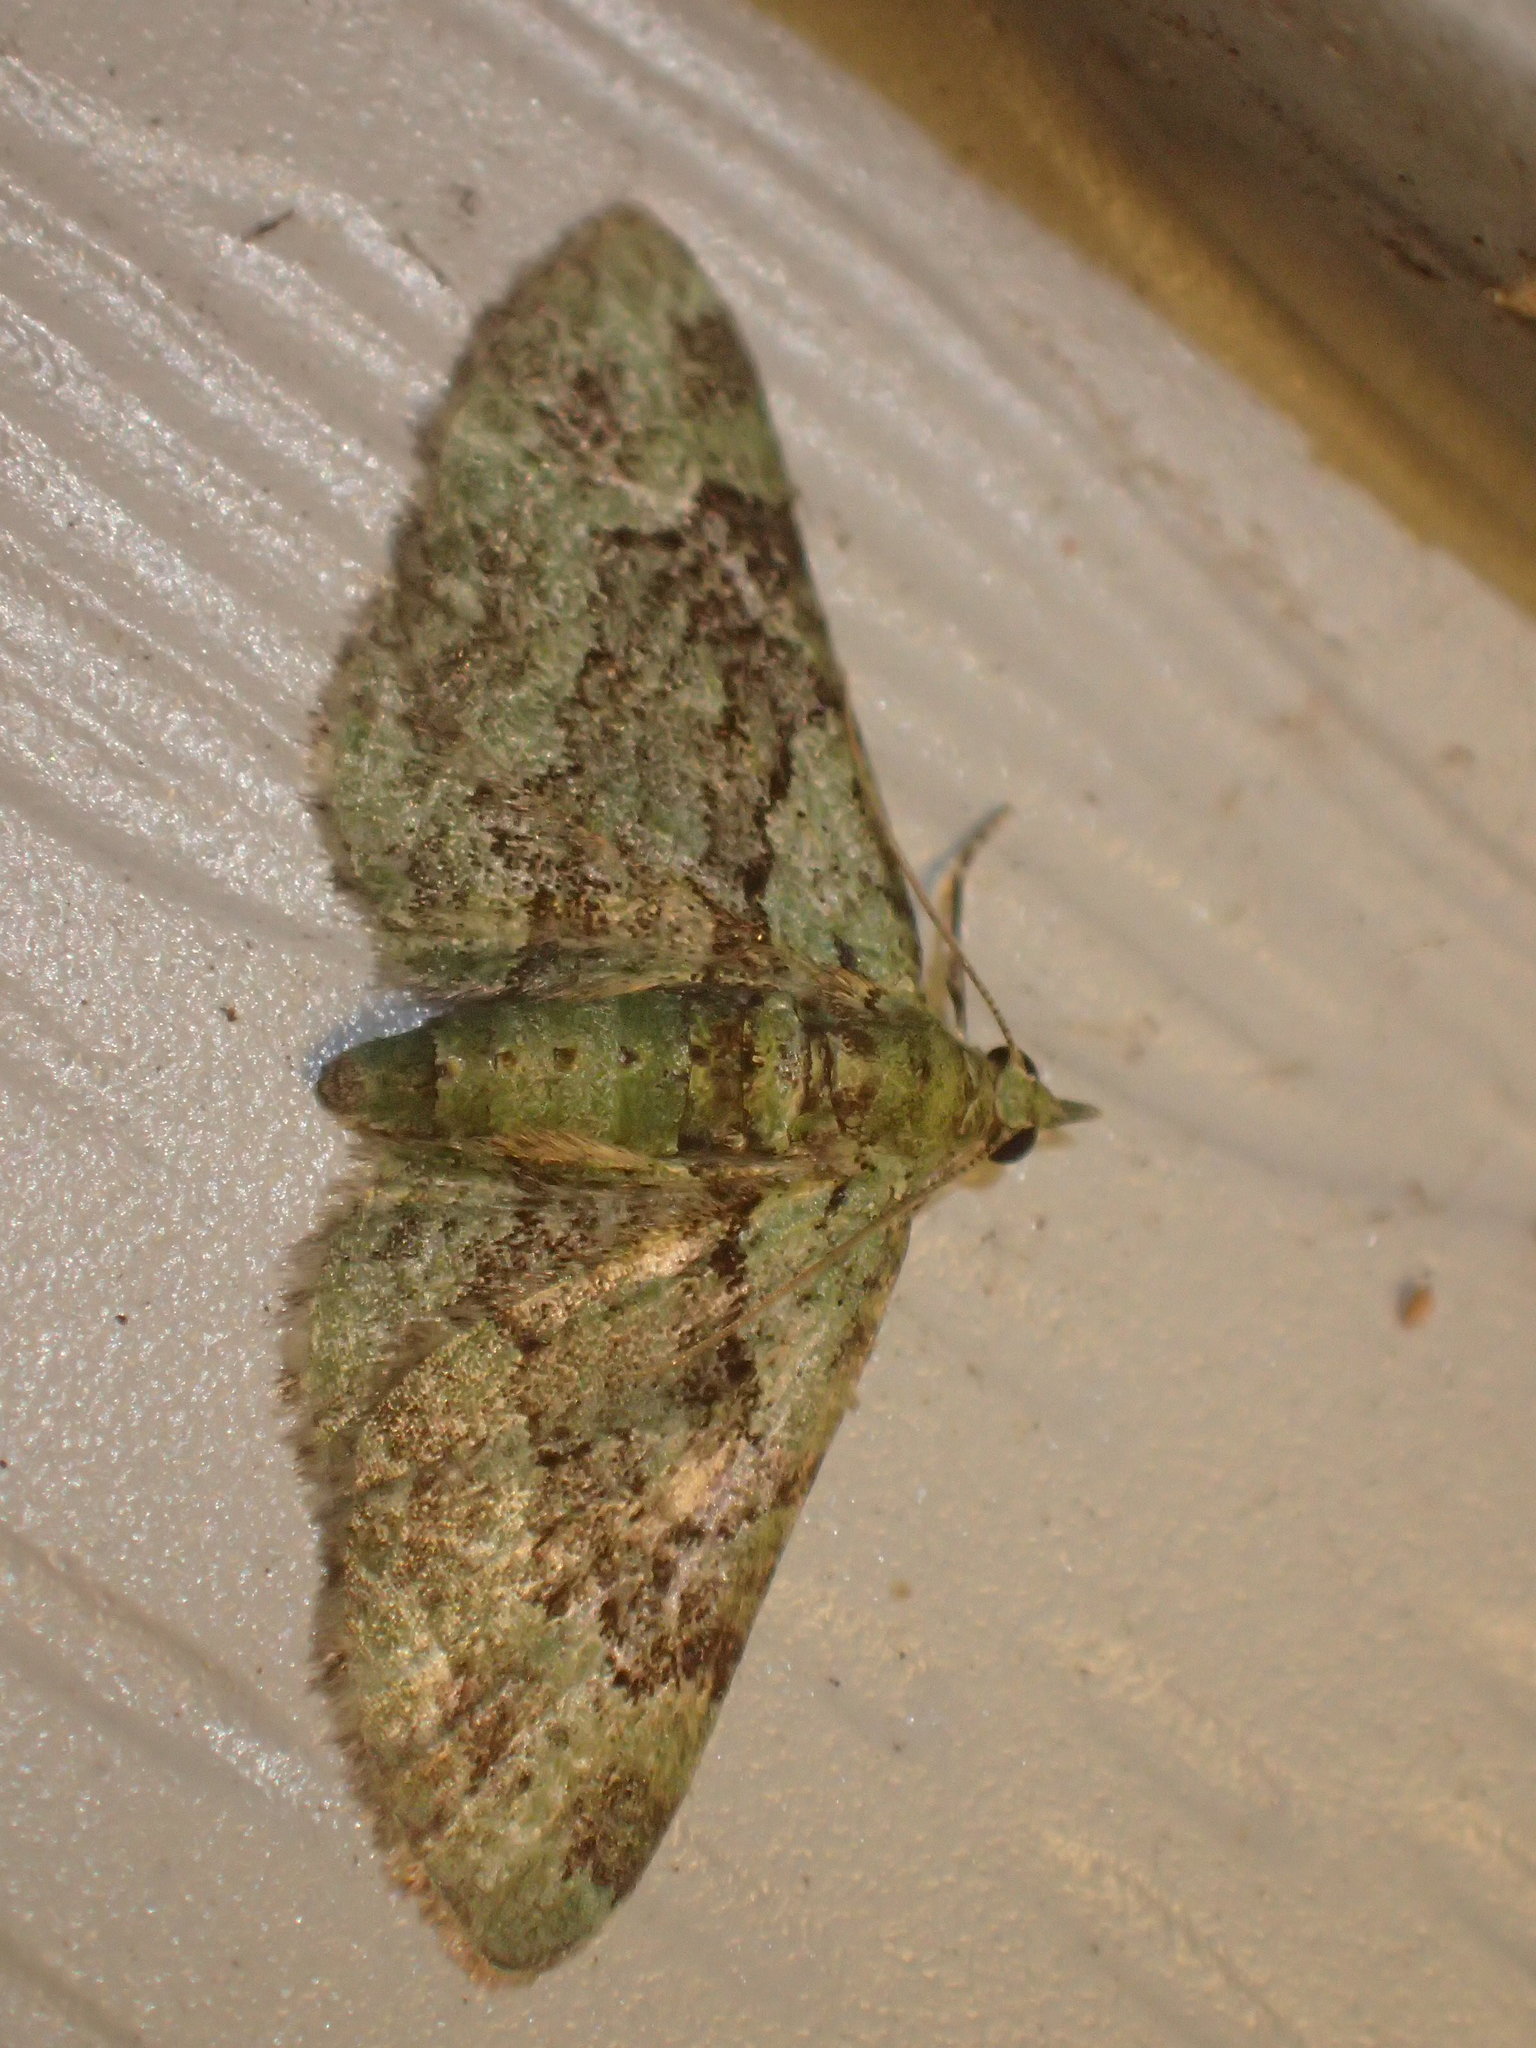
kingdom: Animalia
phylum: Arthropoda
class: Insecta
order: Lepidoptera
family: Geometridae
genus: Pasiphila
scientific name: Pasiphila rectangulata
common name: Green pug
